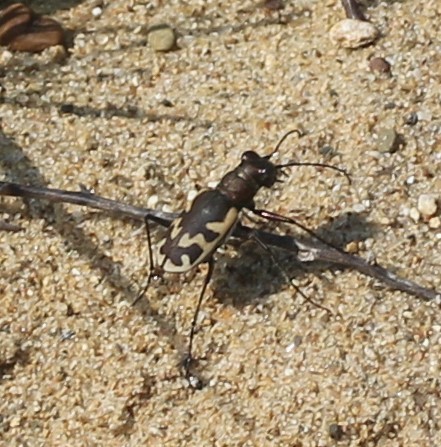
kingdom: Animalia
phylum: Arthropoda
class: Insecta
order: Coleoptera
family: Carabidae
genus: Cicindela
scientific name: Cicindela formosa
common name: Big sand tiger beetle
